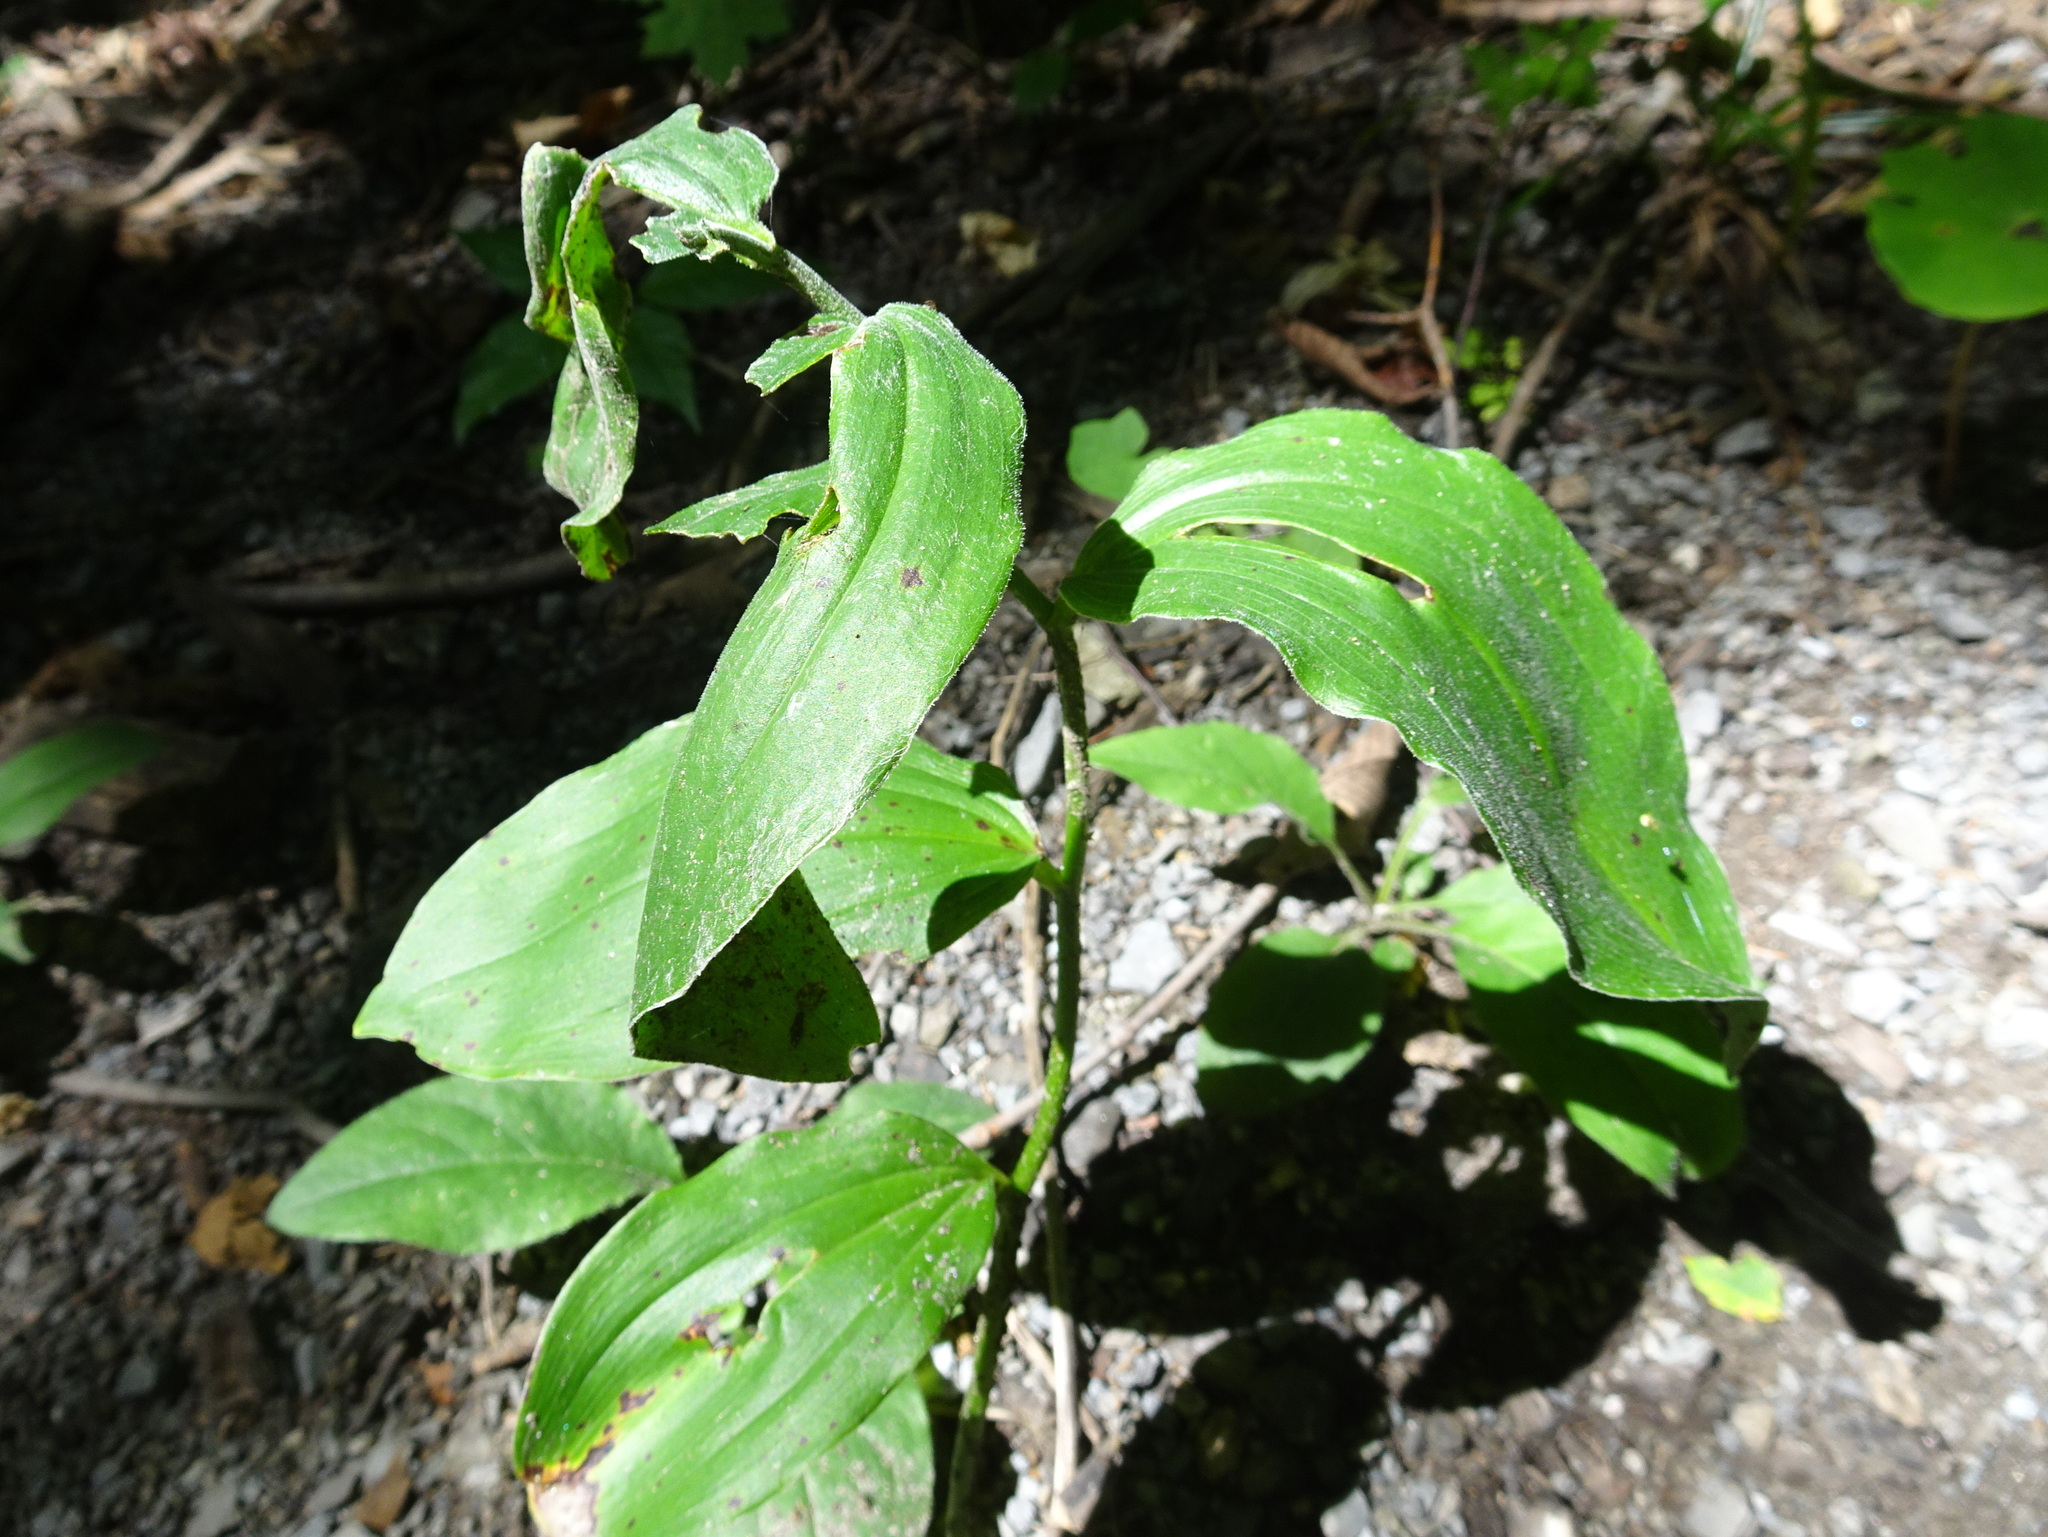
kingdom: Plantae
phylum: Tracheophyta
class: Liliopsida
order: Asparagales
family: Asparagaceae
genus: Maianthemum
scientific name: Maianthemum racemosum
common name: False spikenard
